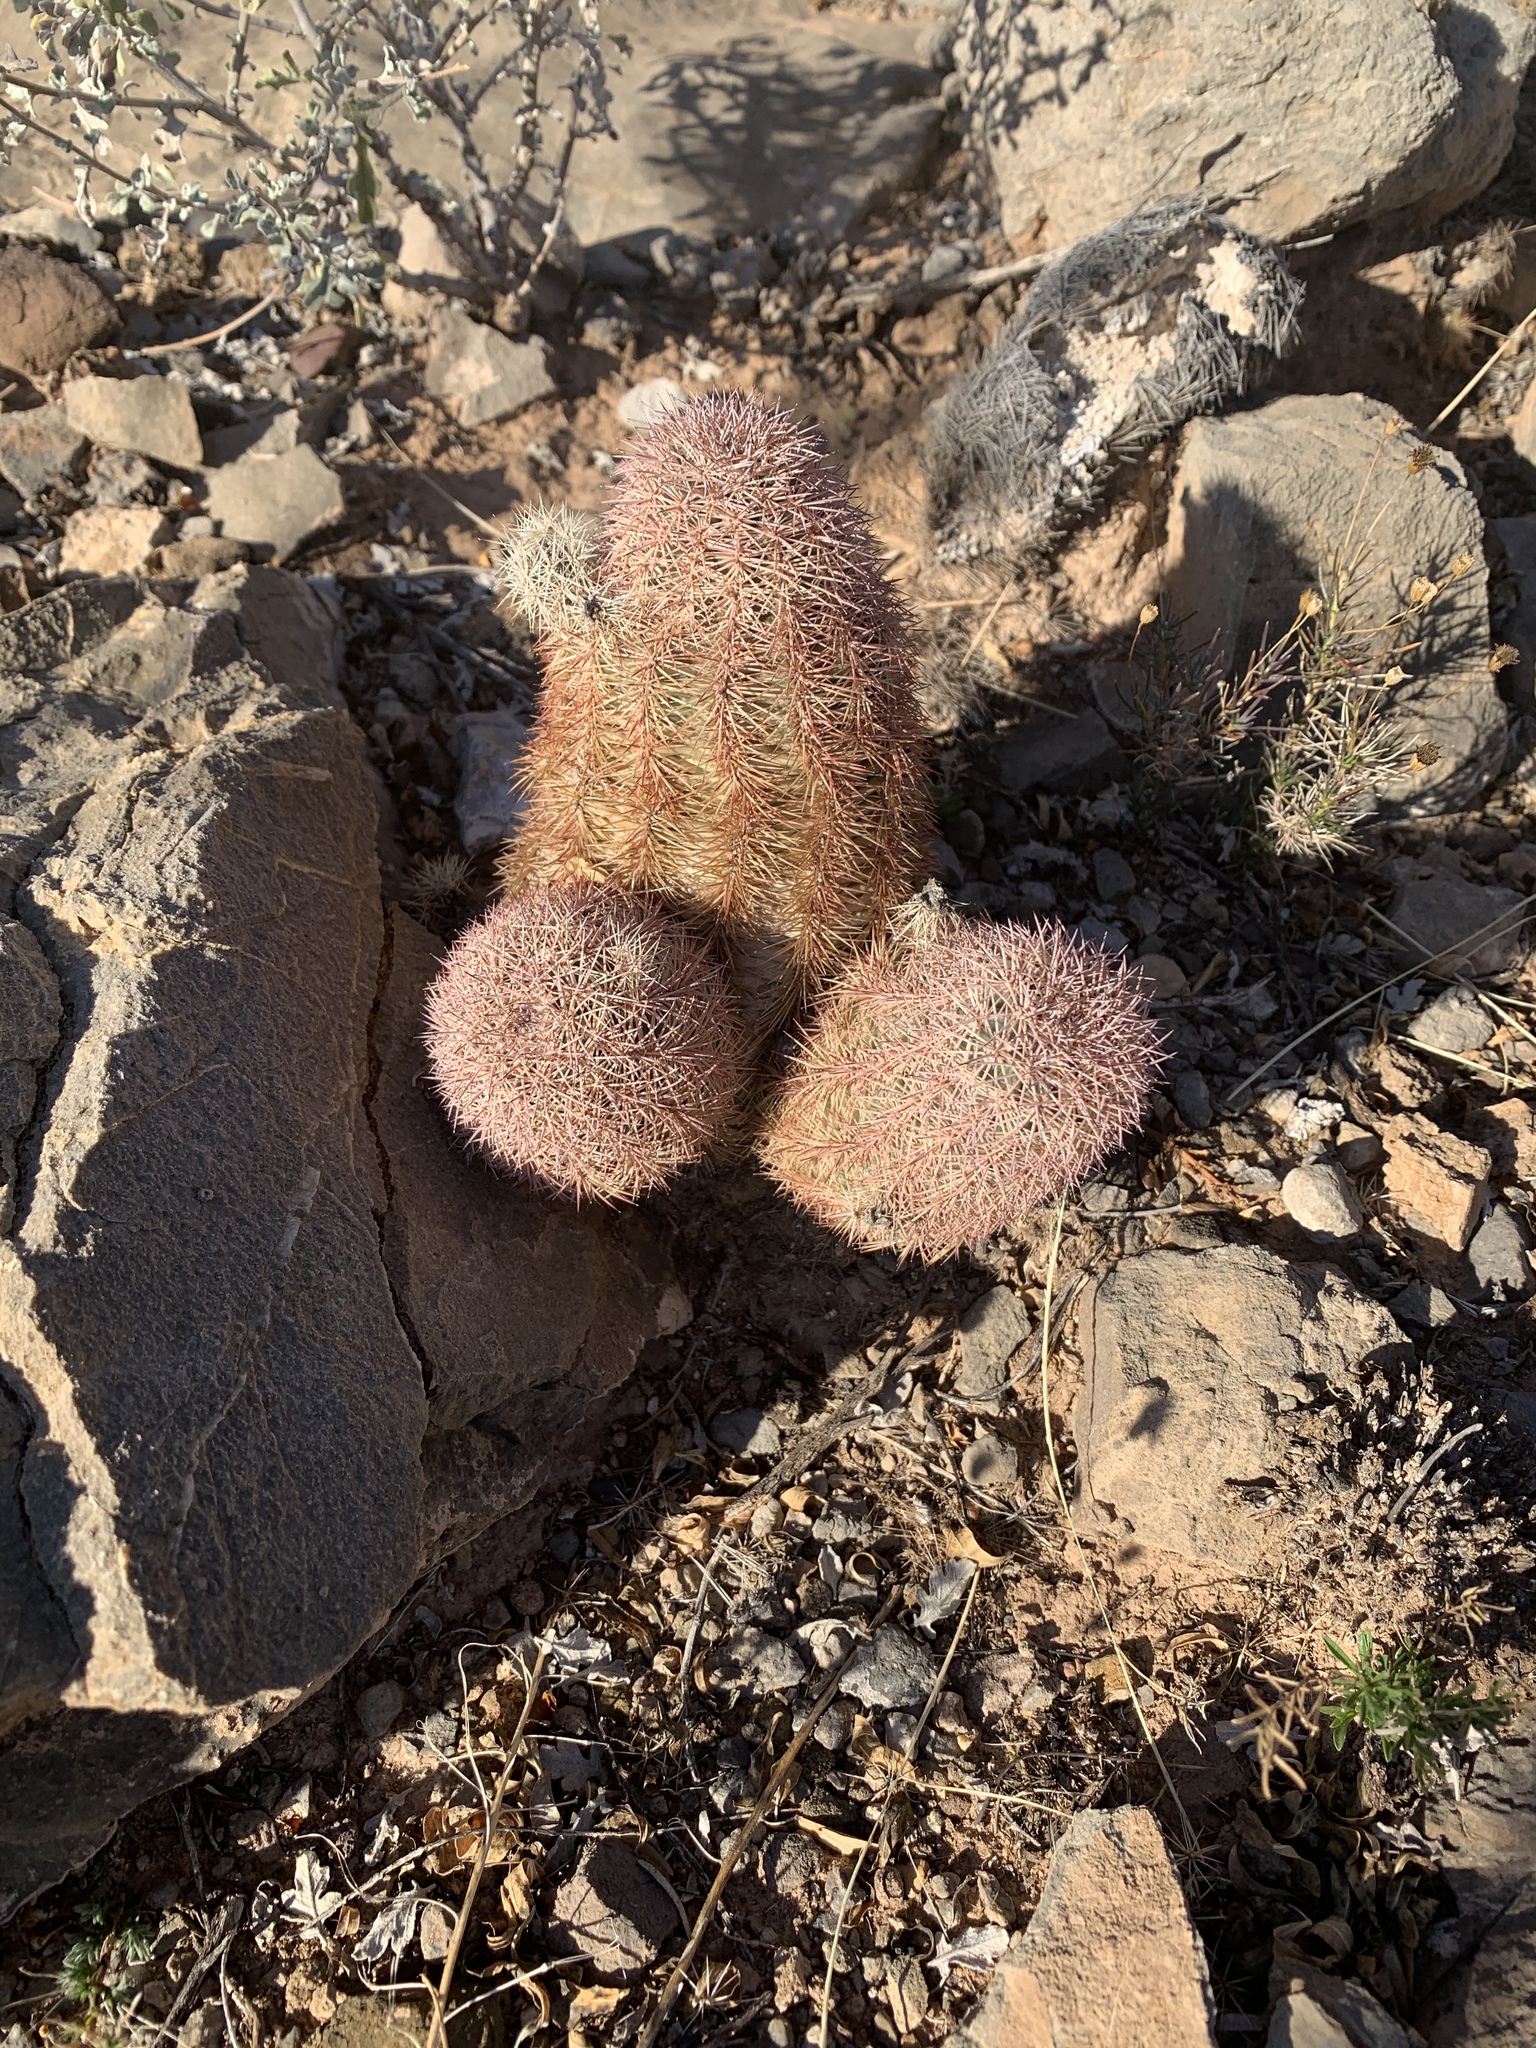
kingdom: Plantae
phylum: Tracheophyta
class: Magnoliopsida
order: Caryophyllales
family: Cactaceae
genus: Echinocereus
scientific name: Echinocereus dasyacanthus
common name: Spiny hedgehog cactus
